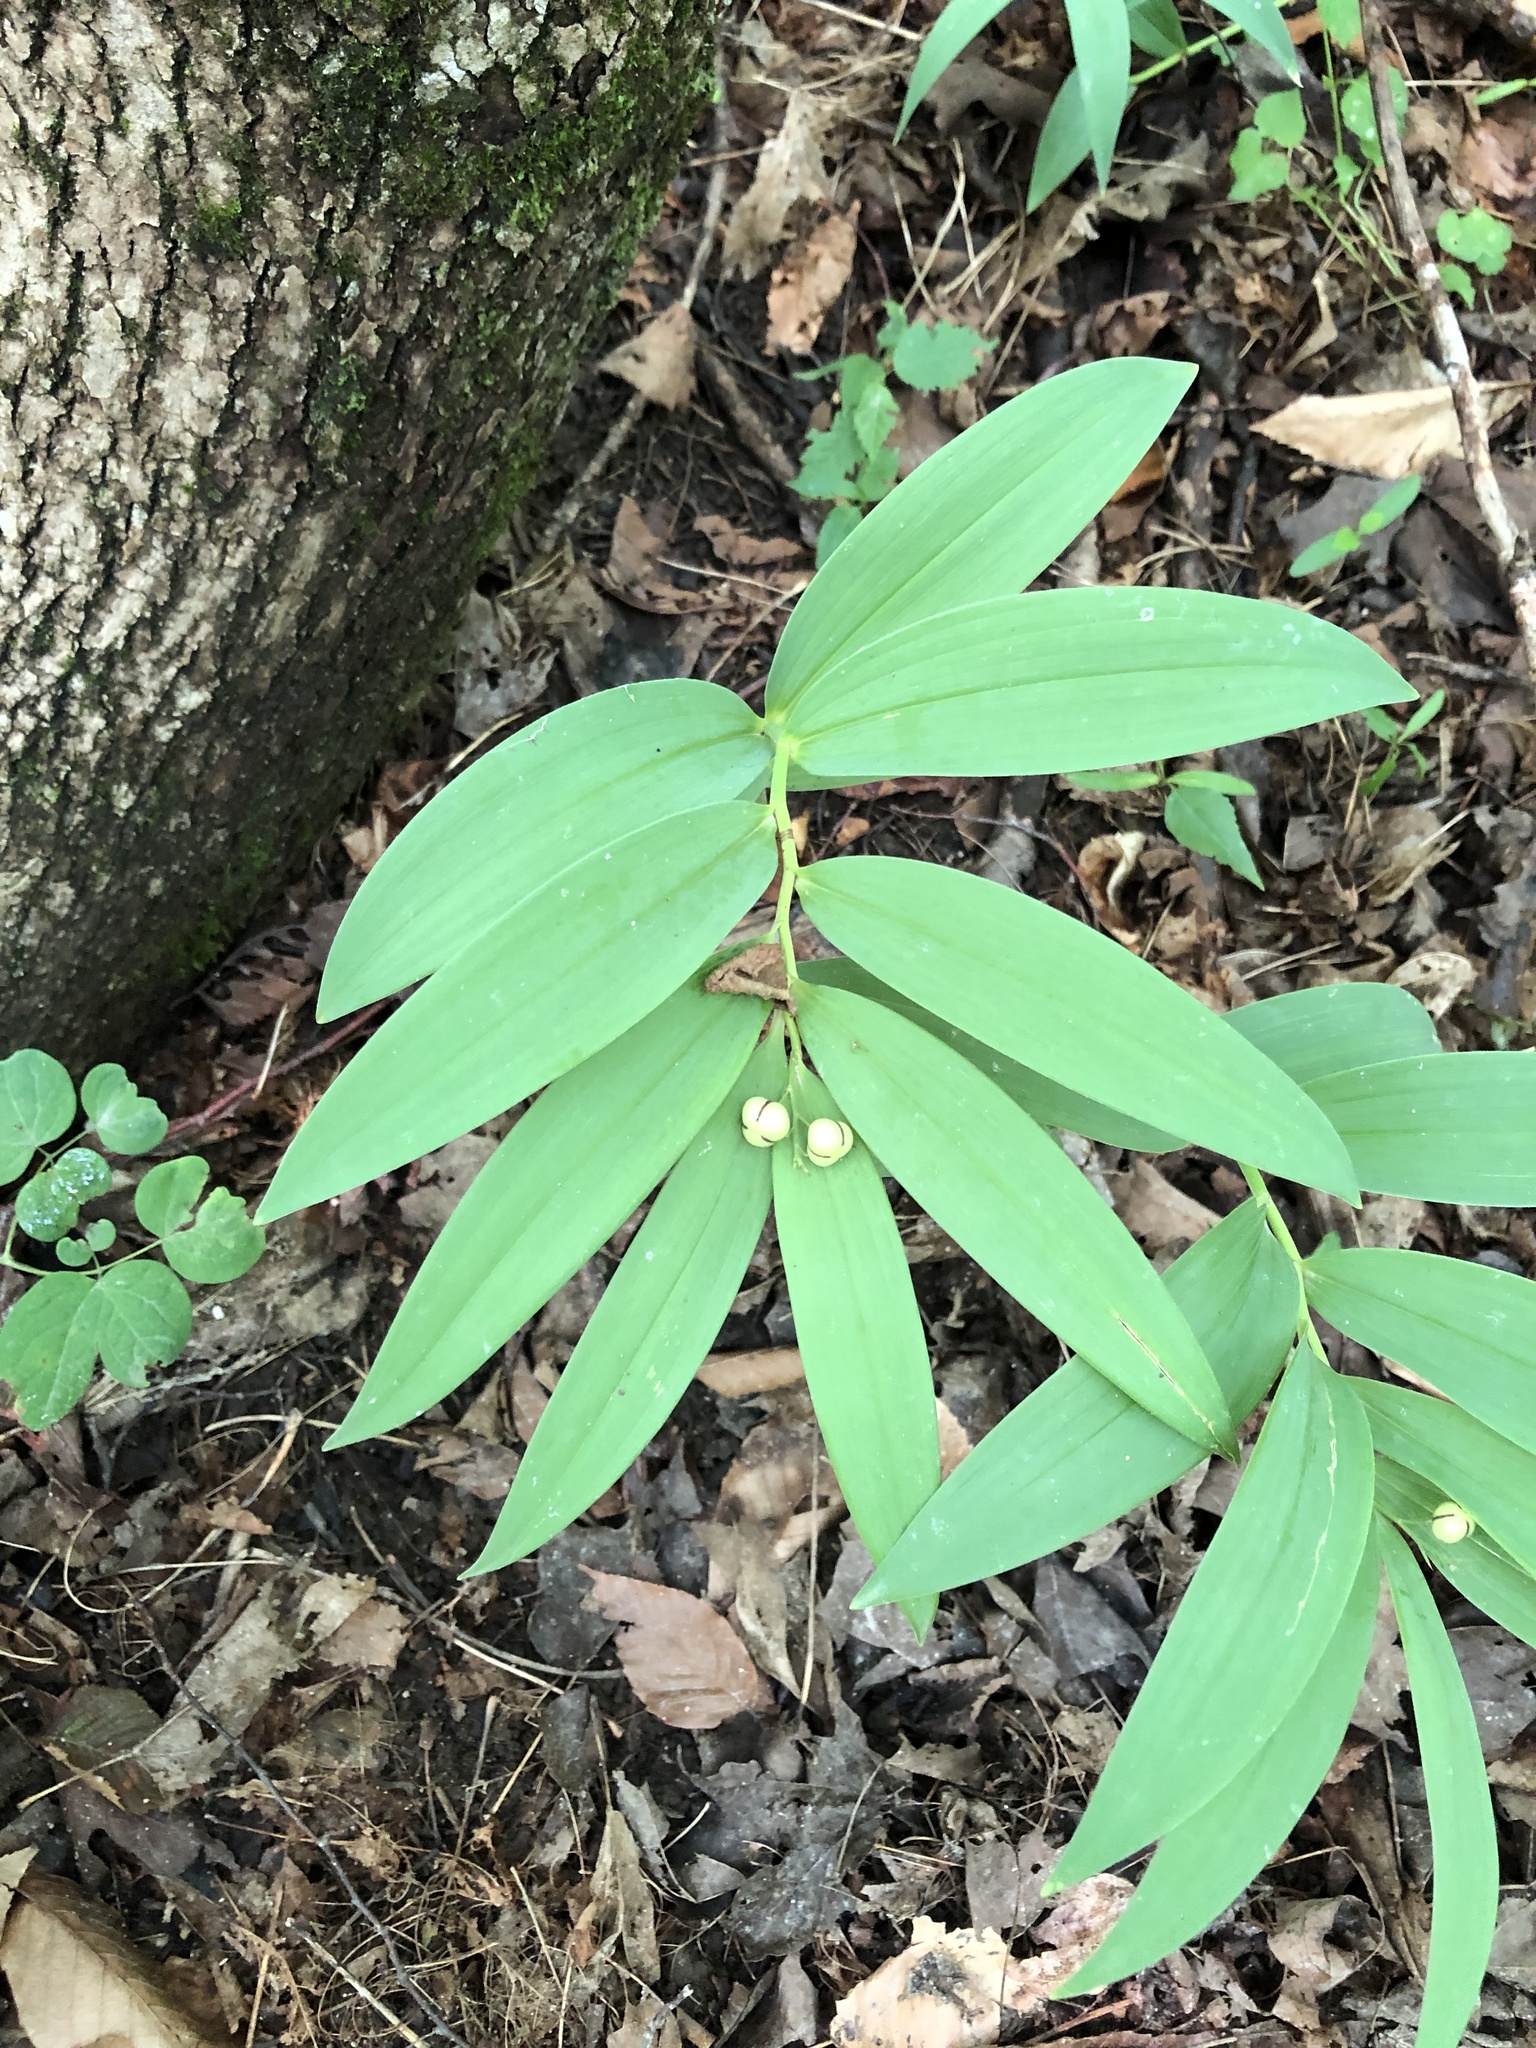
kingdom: Plantae
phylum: Tracheophyta
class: Liliopsida
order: Asparagales
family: Asparagaceae
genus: Maianthemum
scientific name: Maianthemum stellatum
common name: Little false solomon's seal
